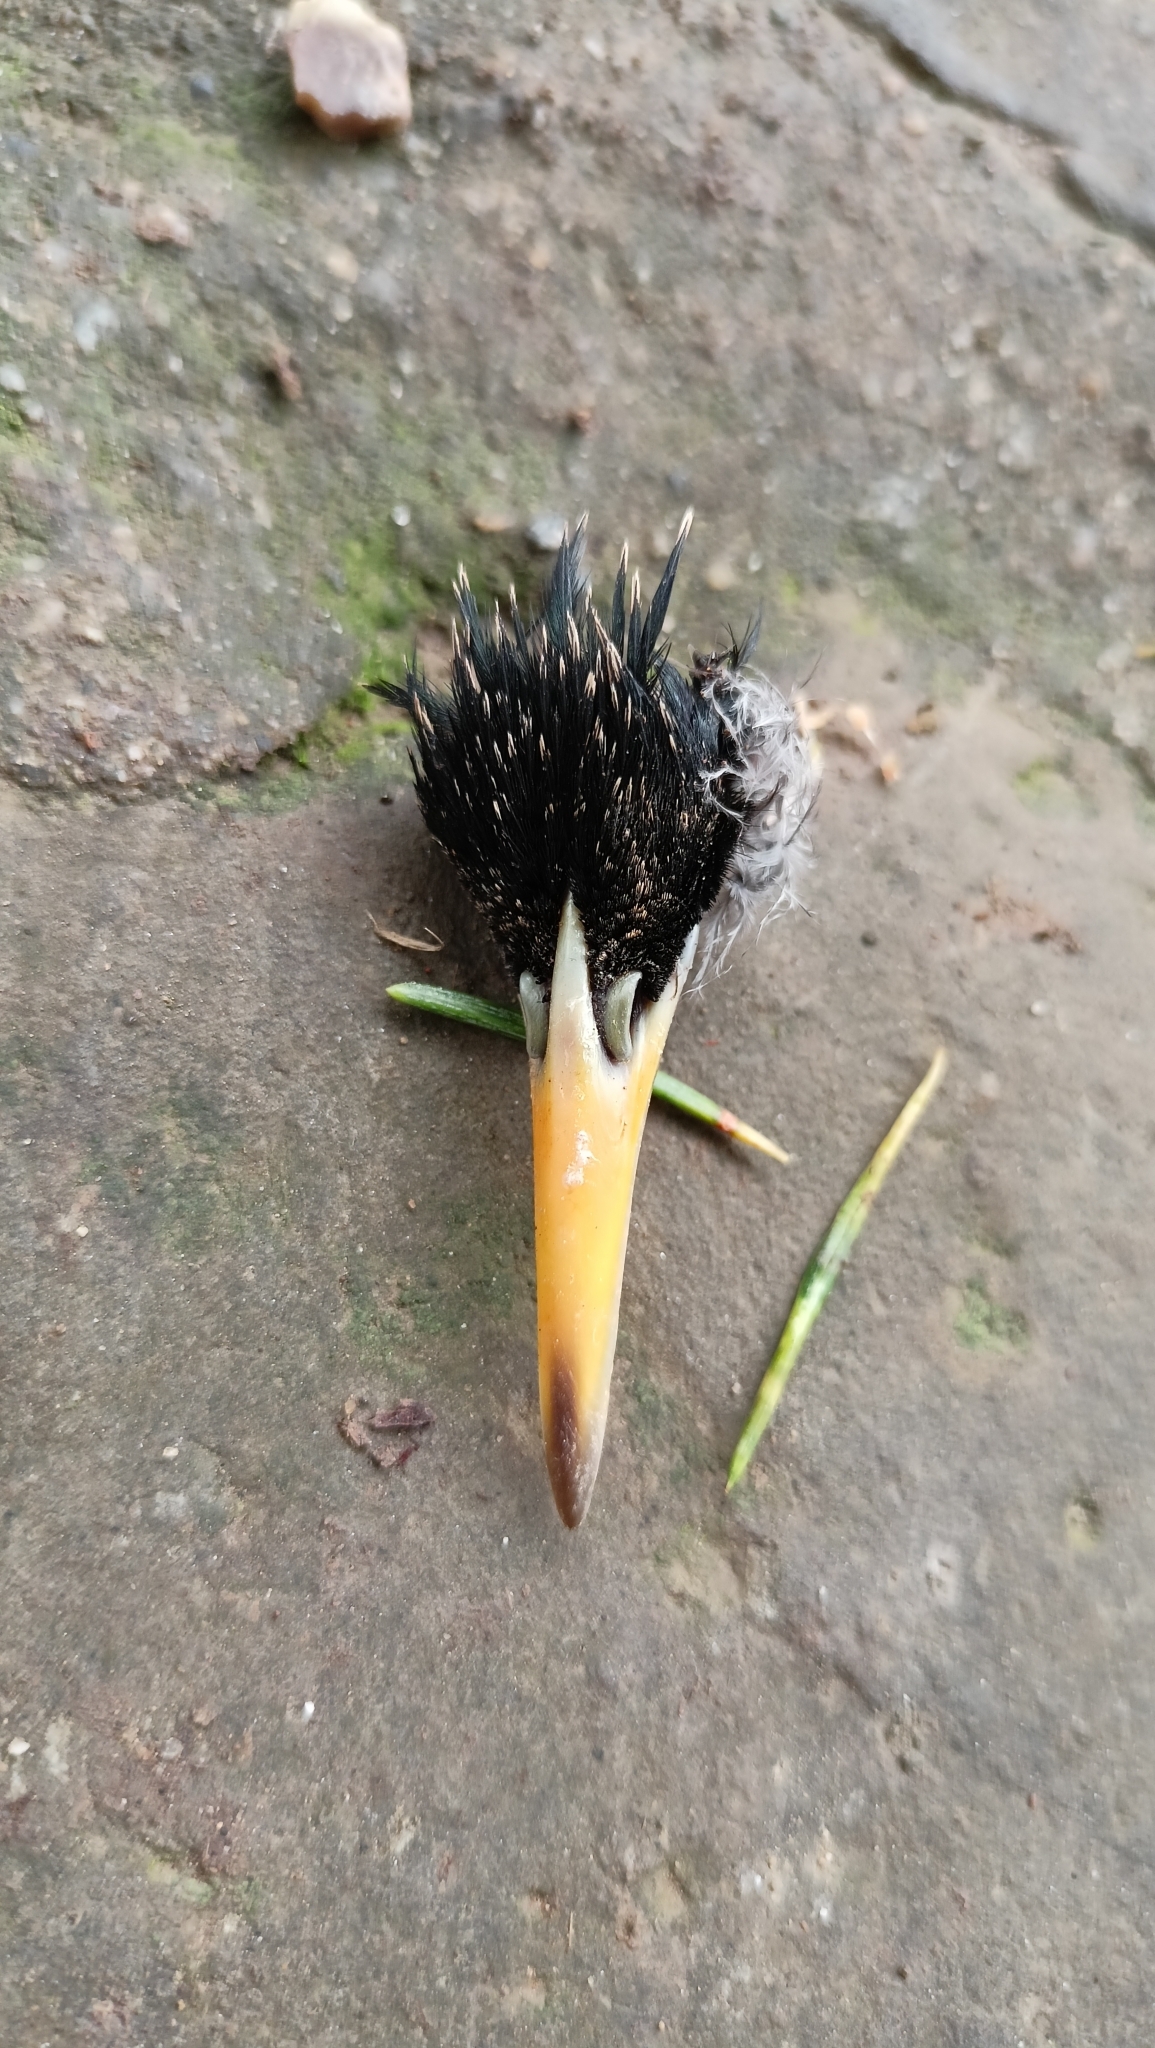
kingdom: Animalia
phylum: Chordata
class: Aves
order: Passeriformes
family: Sturnidae
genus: Sturnus
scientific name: Sturnus vulgaris
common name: Common starling
